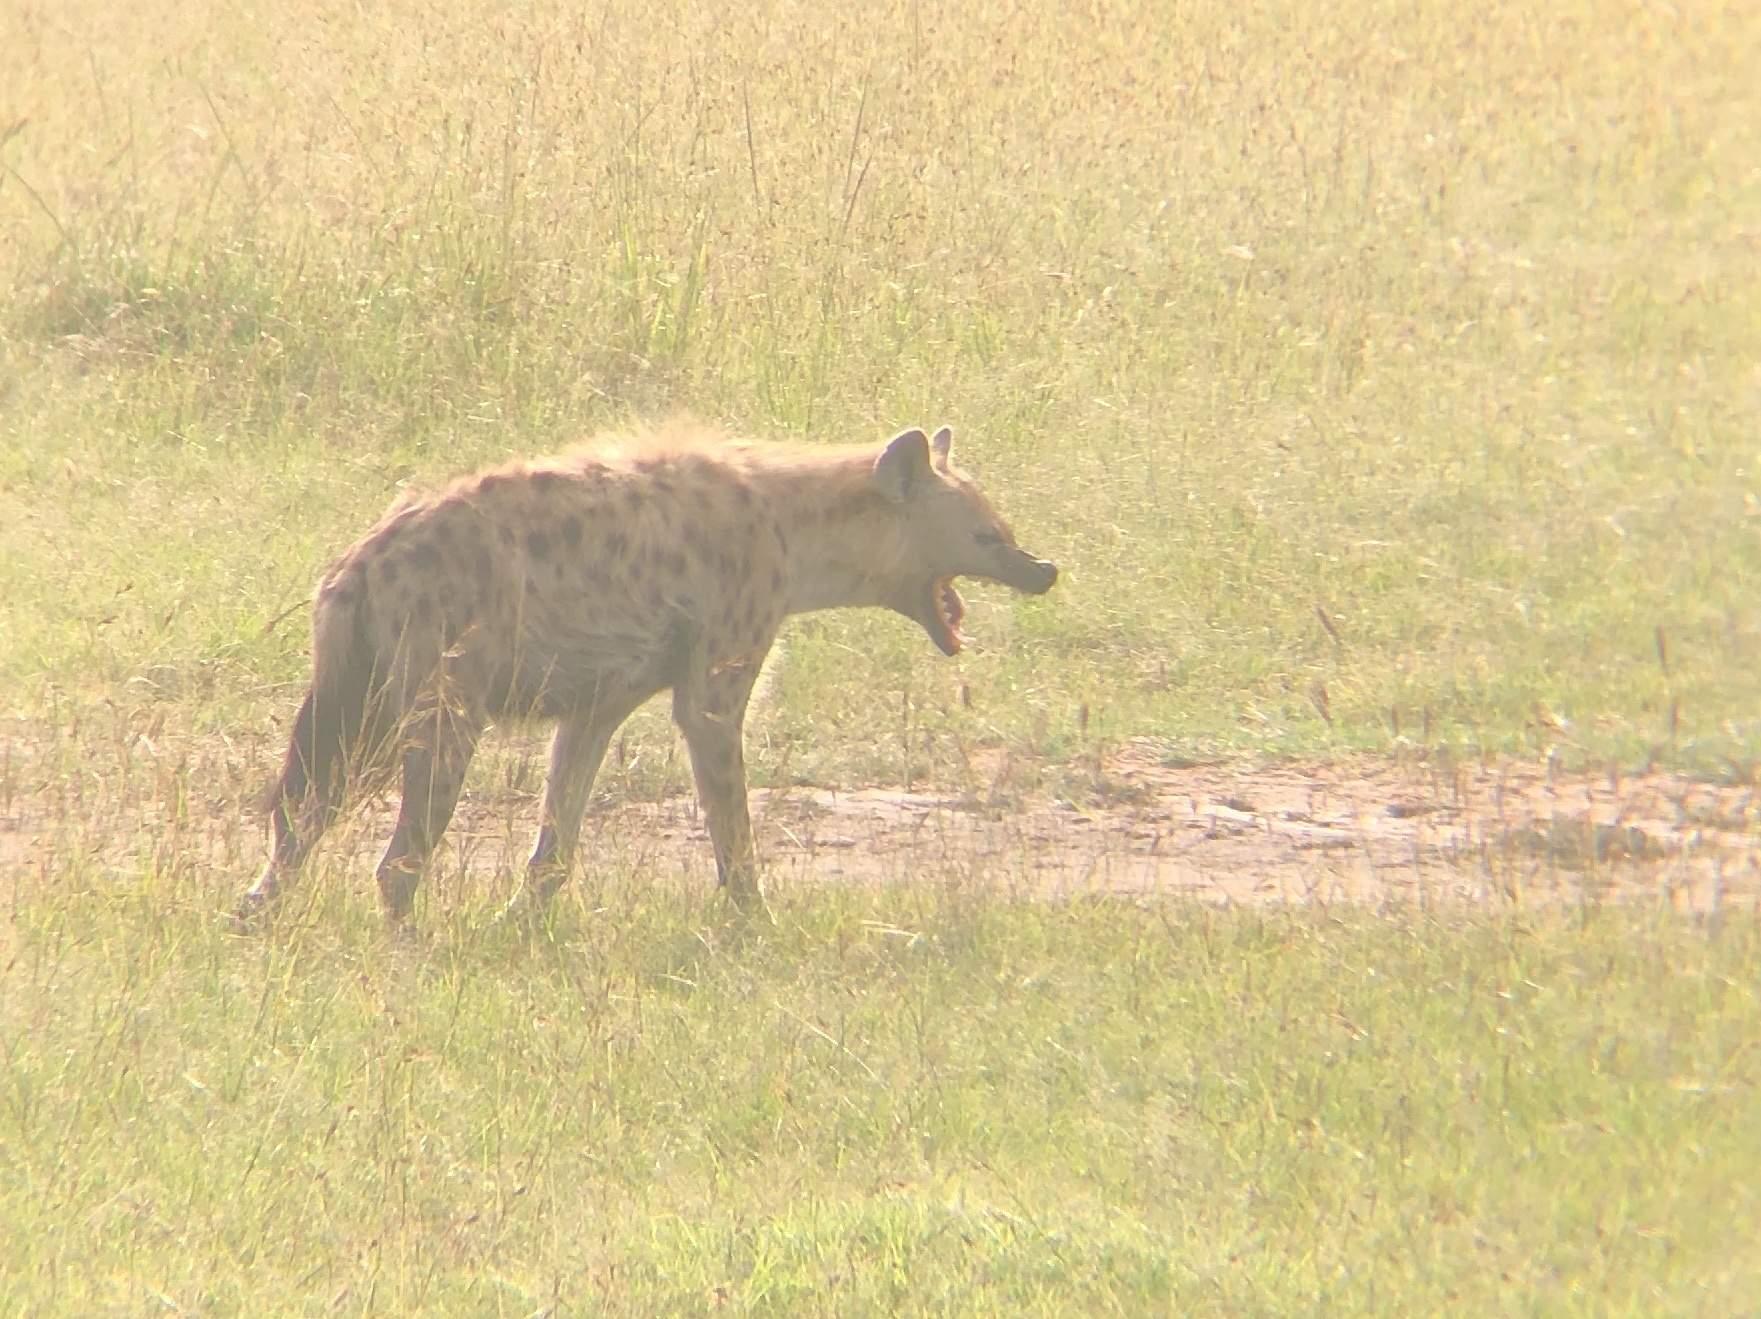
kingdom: Animalia
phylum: Chordata
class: Mammalia
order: Carnivora
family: Hyaenidae
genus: Crocuta
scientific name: Crocuta crocuta
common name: Spotted hyaena
